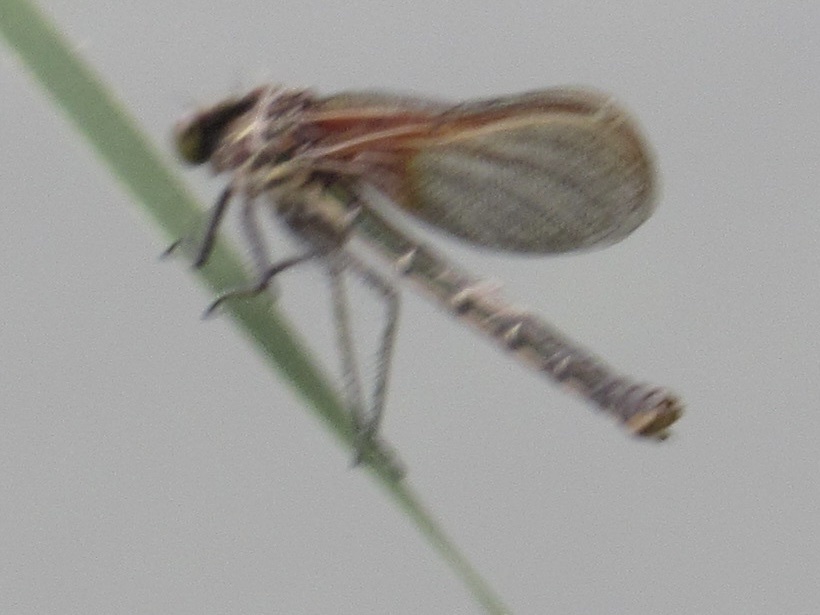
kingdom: Animalia
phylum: Arthropoda
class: Insecta
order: Odonata
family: Calopterygidae
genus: Hetaerina
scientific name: Hetaerina americana
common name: American rubyspot
